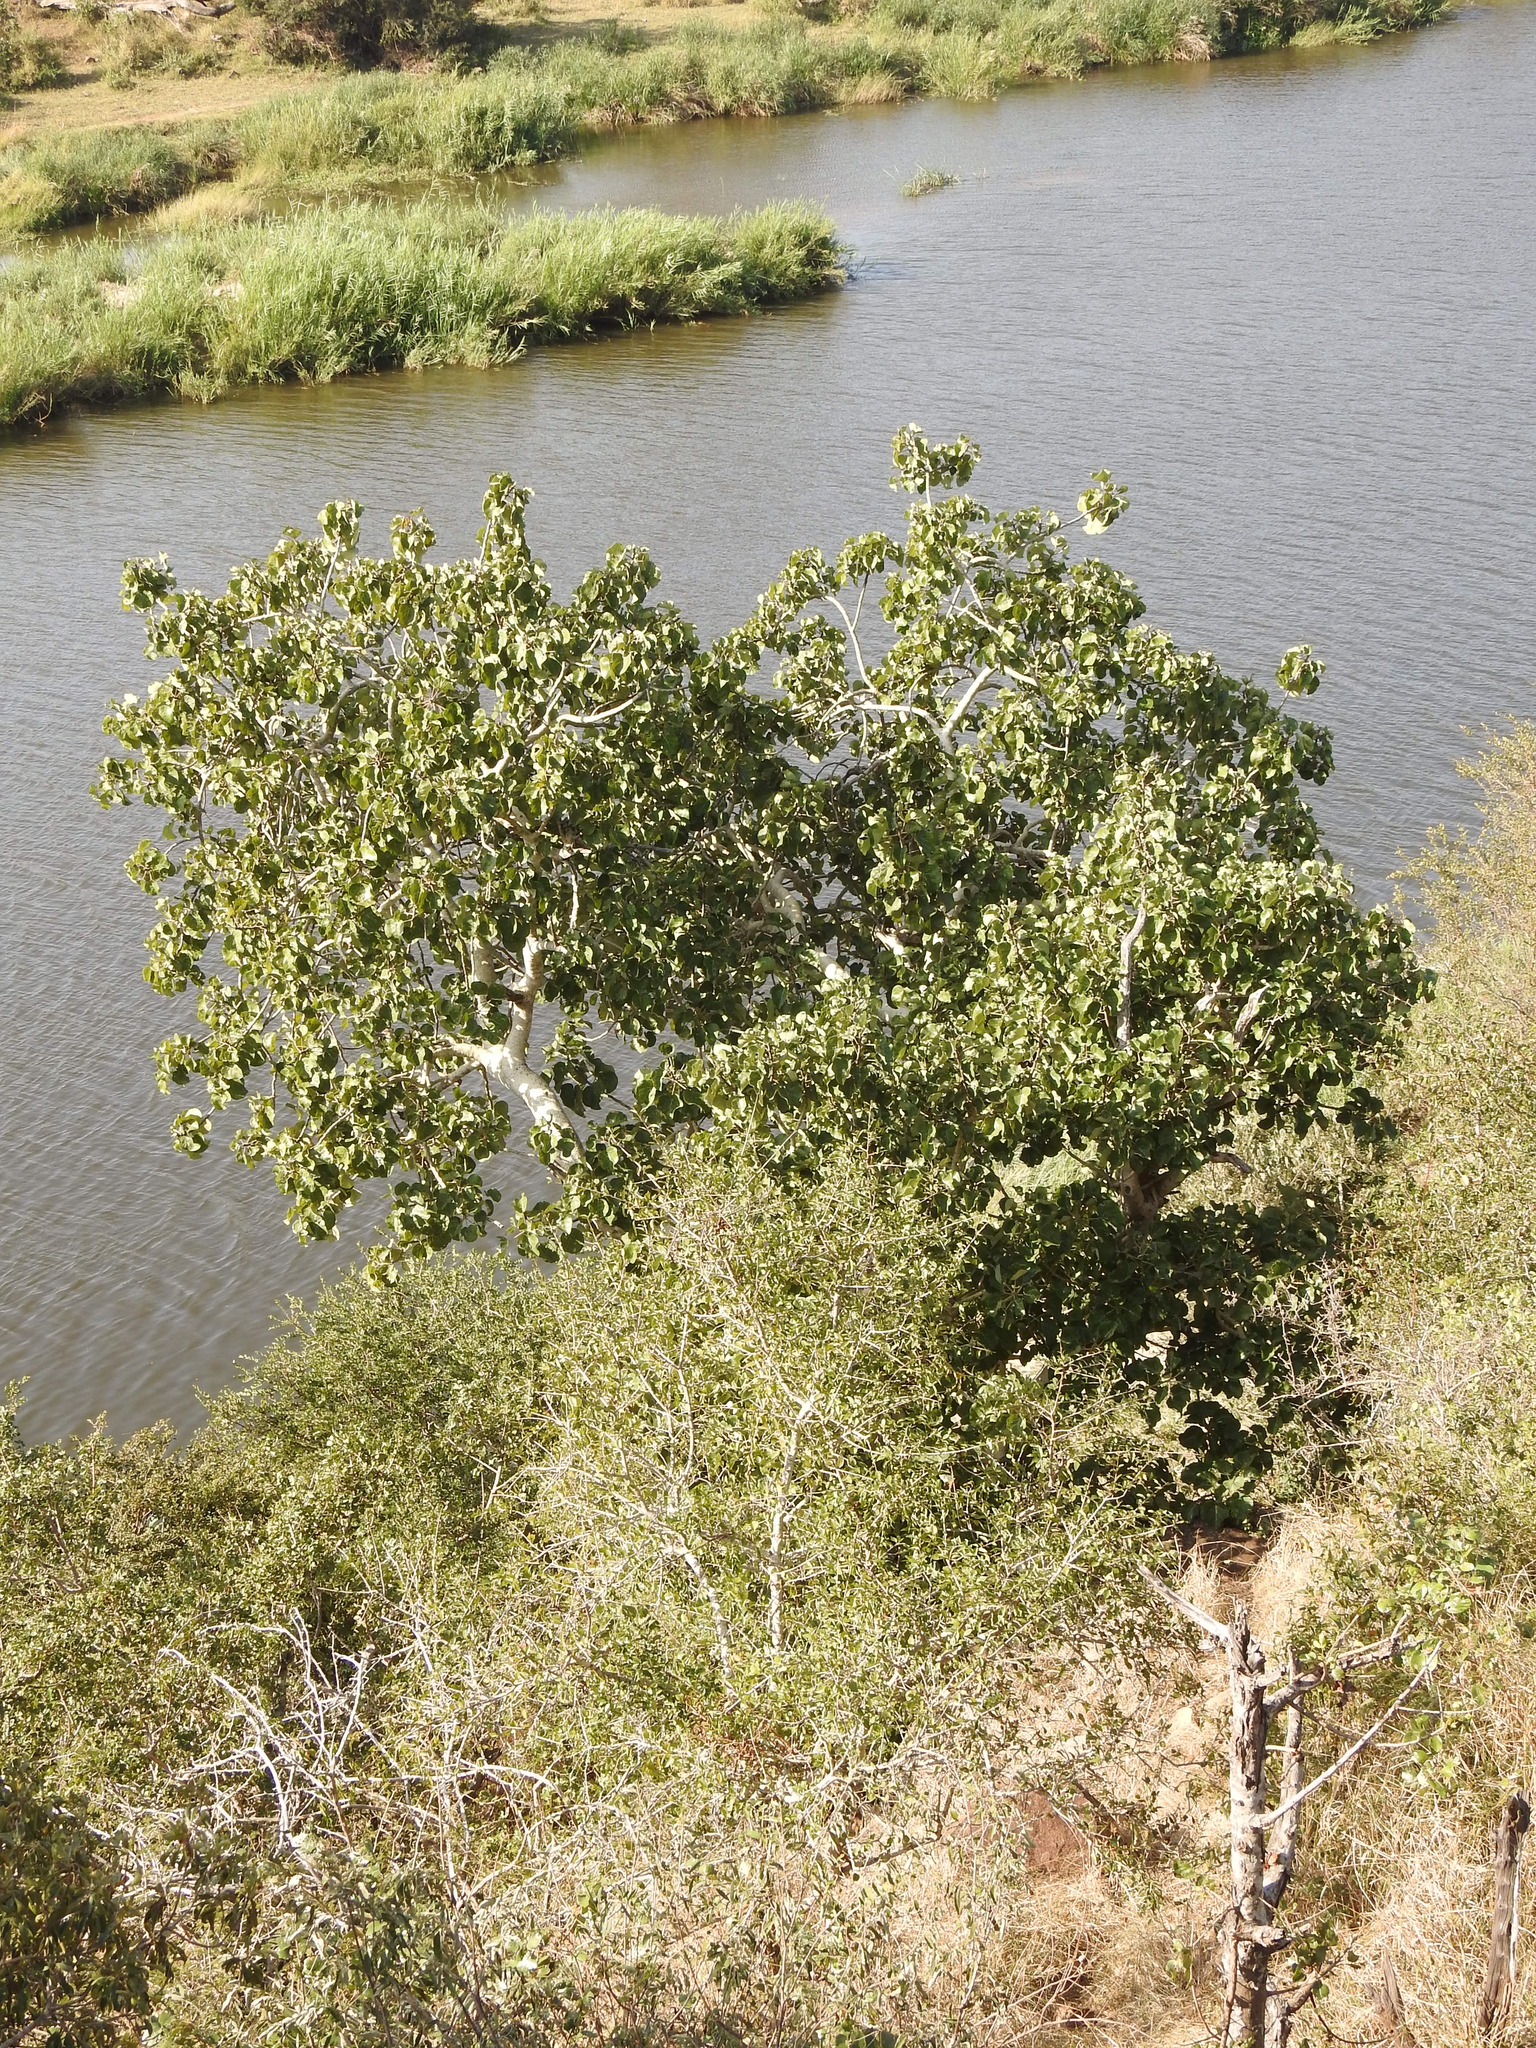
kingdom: Plantae
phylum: Tracheophyta
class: Magnoliopsida
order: Rosales
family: Moraceae
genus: Ficus
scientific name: Ficus abutilifolia
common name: Large-leaved rock fig
